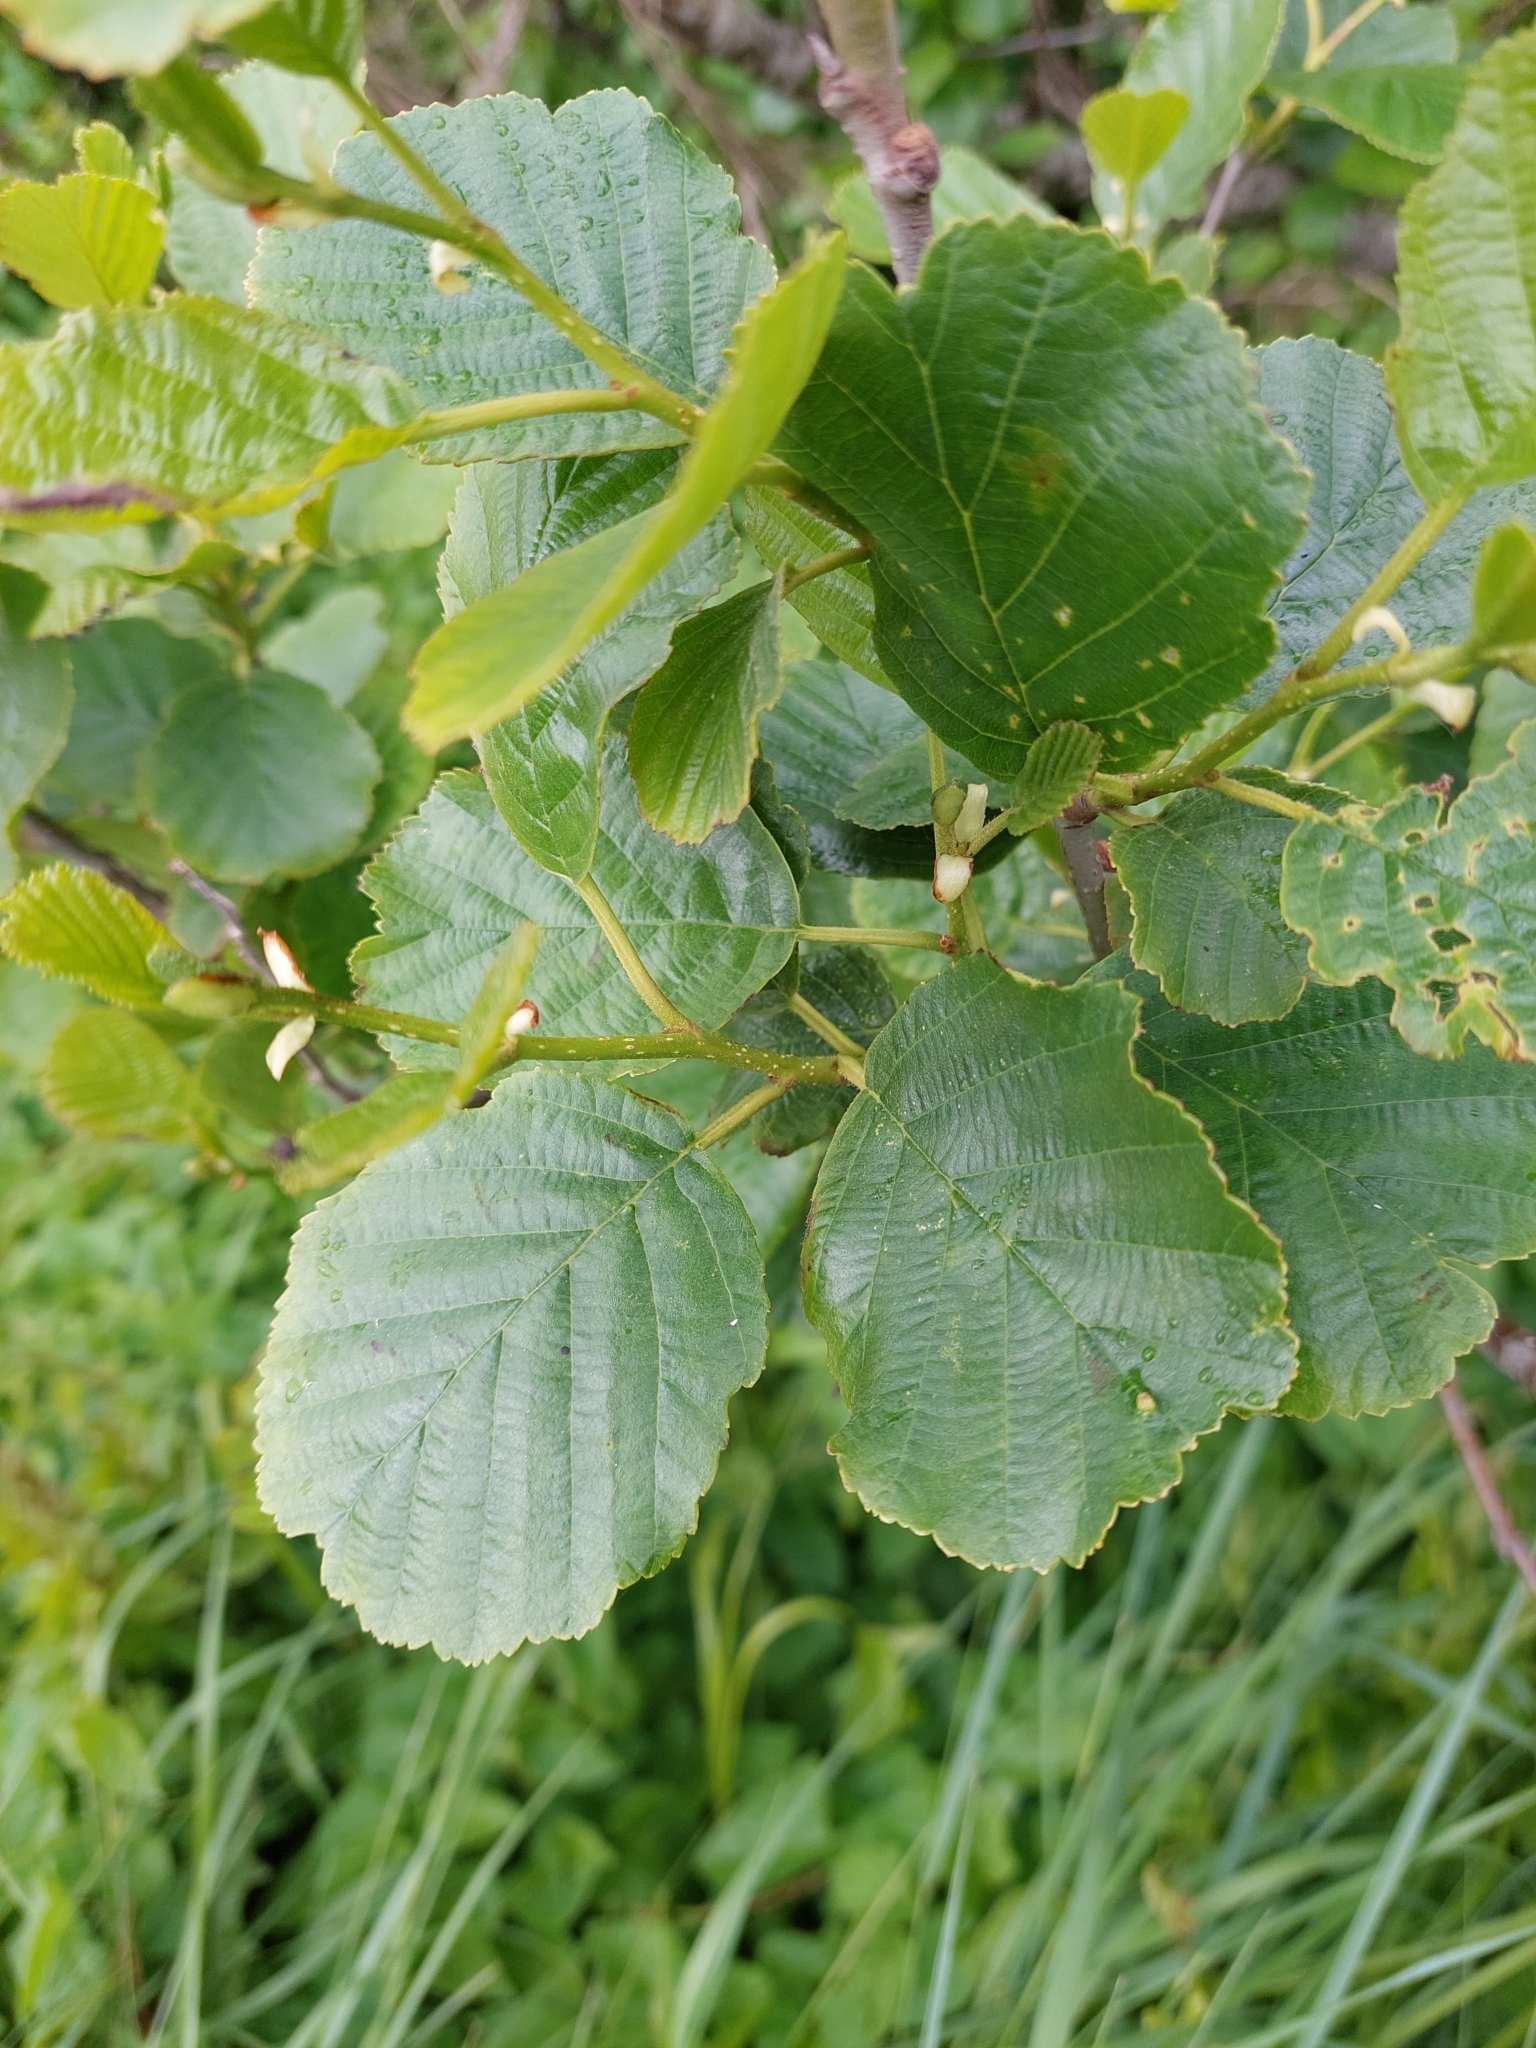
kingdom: Plantae
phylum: Tracheophyta
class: Magnoliopsida
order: Fagales
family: Betulaceae
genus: Alnus
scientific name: Alnus glutinosa
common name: Black alder
